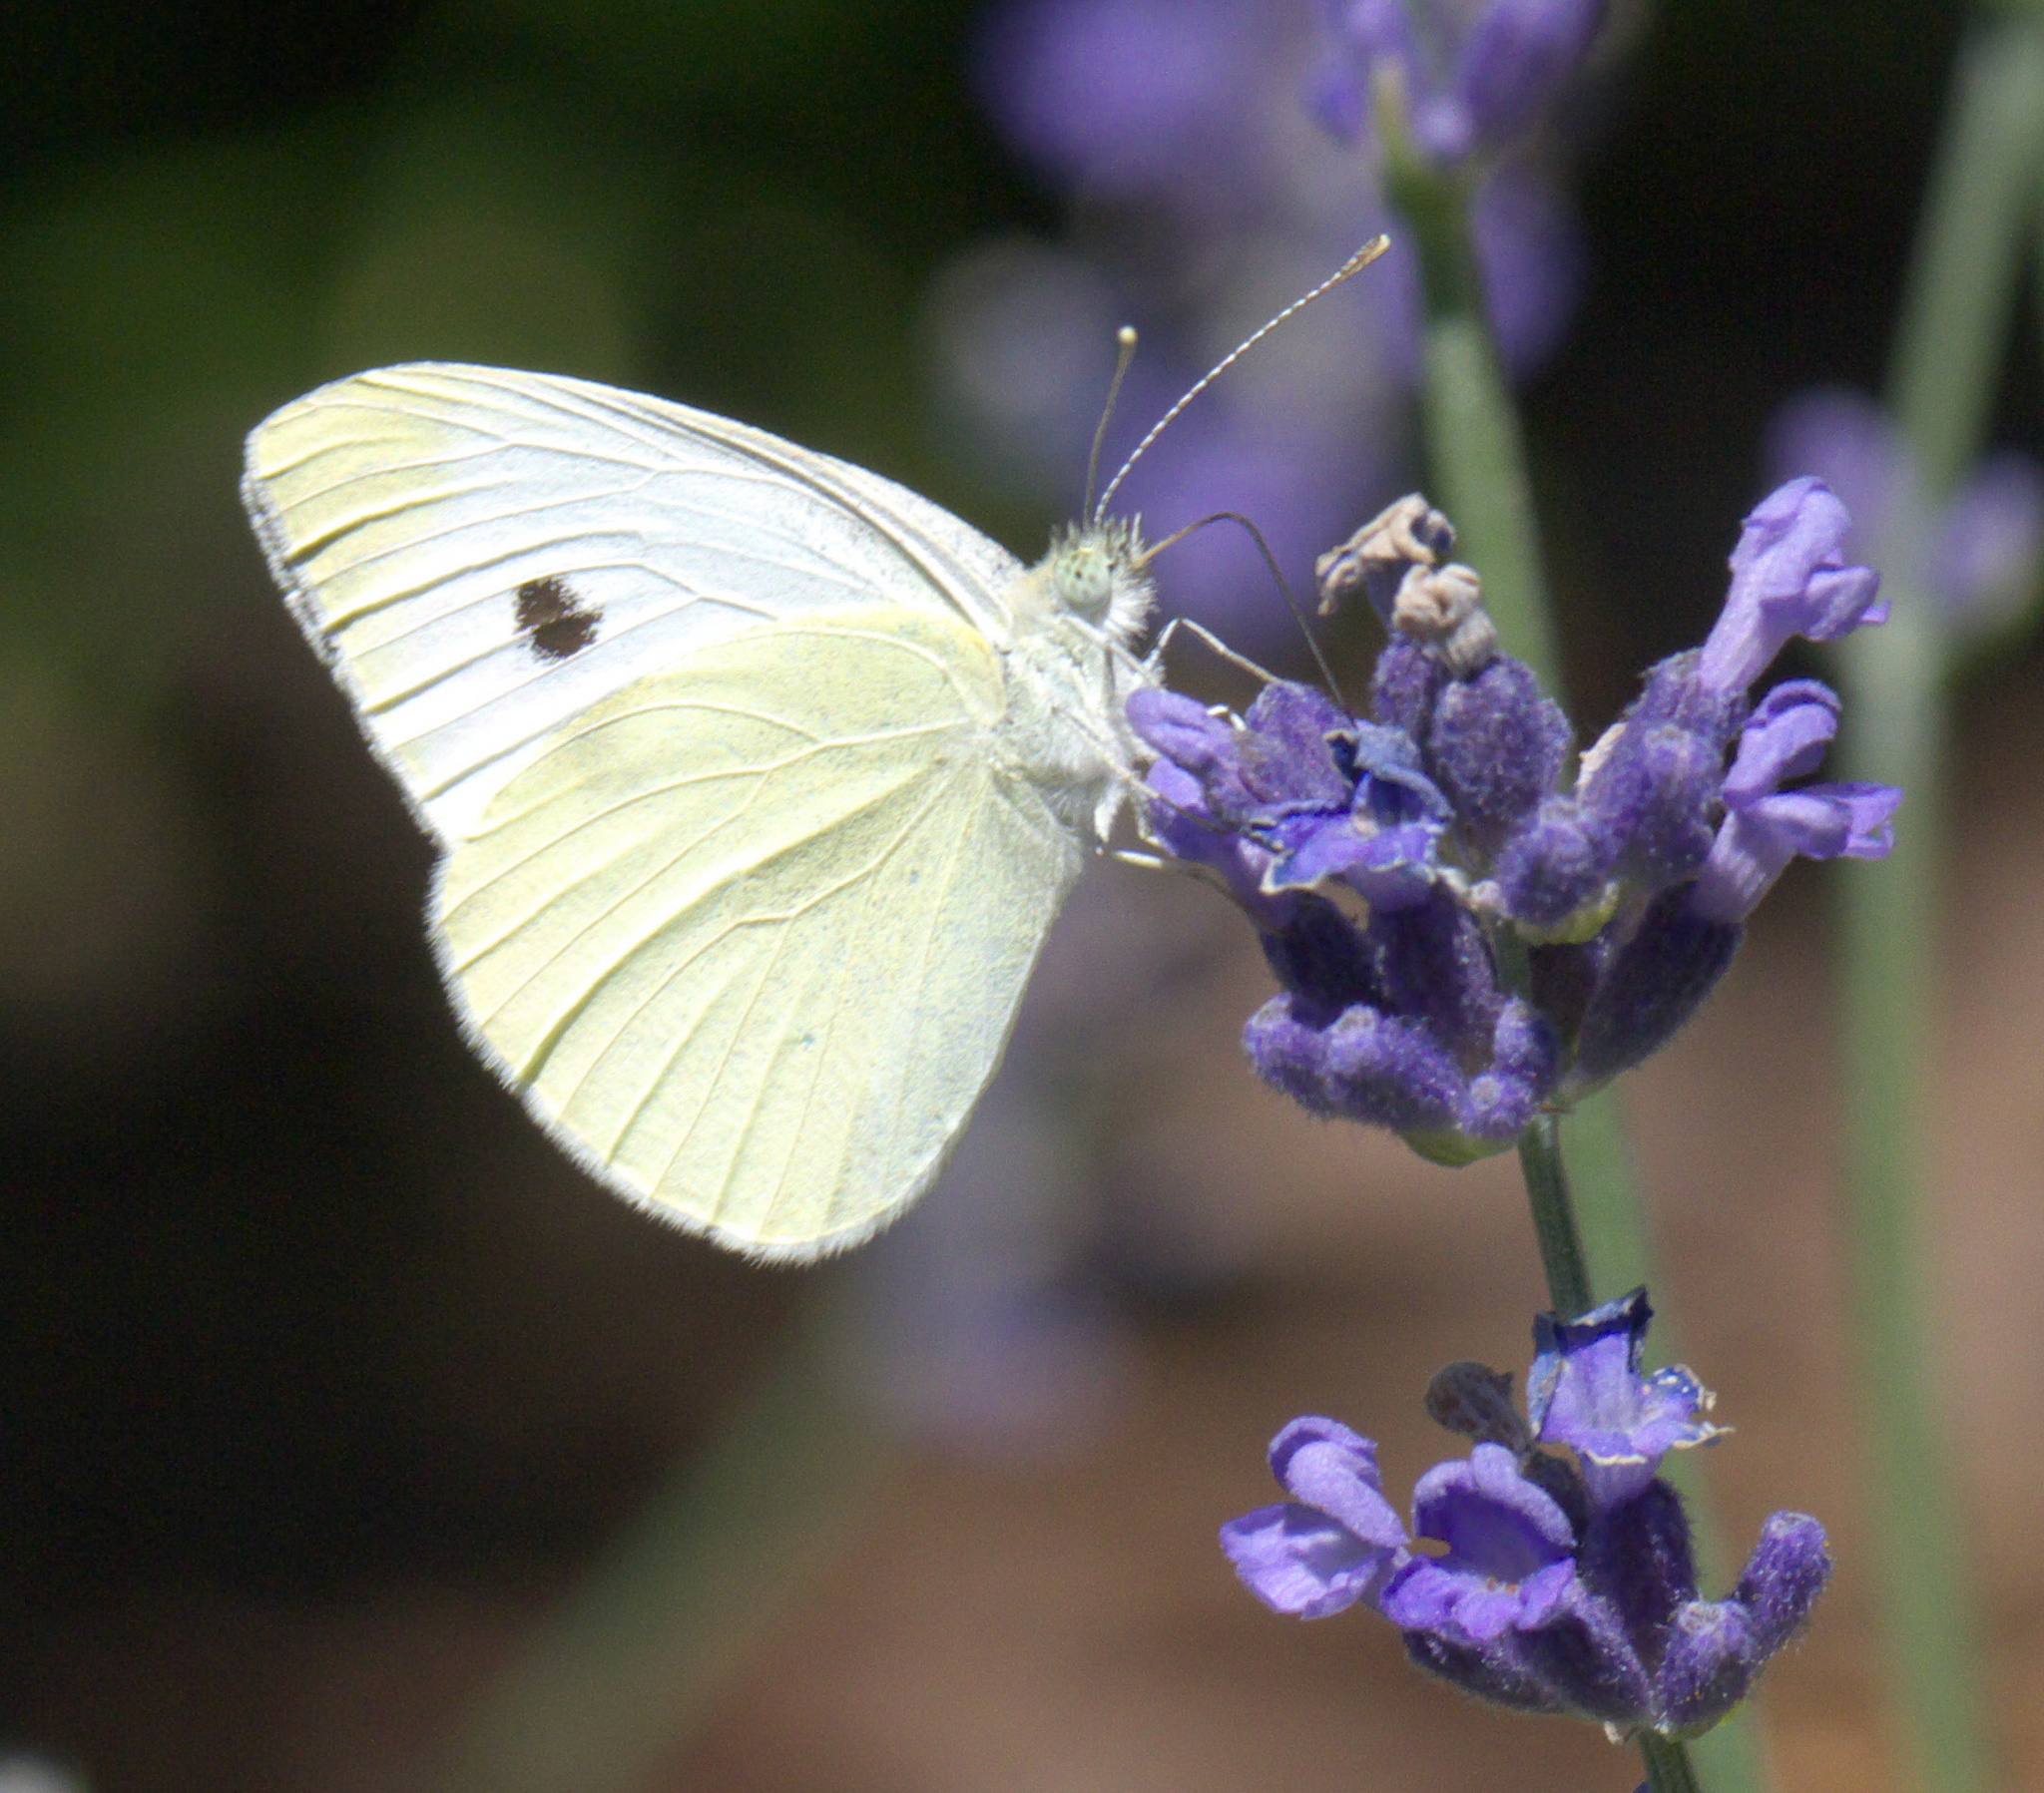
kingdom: Animalia
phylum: Arthropoda
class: Insecta
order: Lepidoptera
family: Pieridae
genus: Pieris
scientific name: Pieris rapae
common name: Small white
